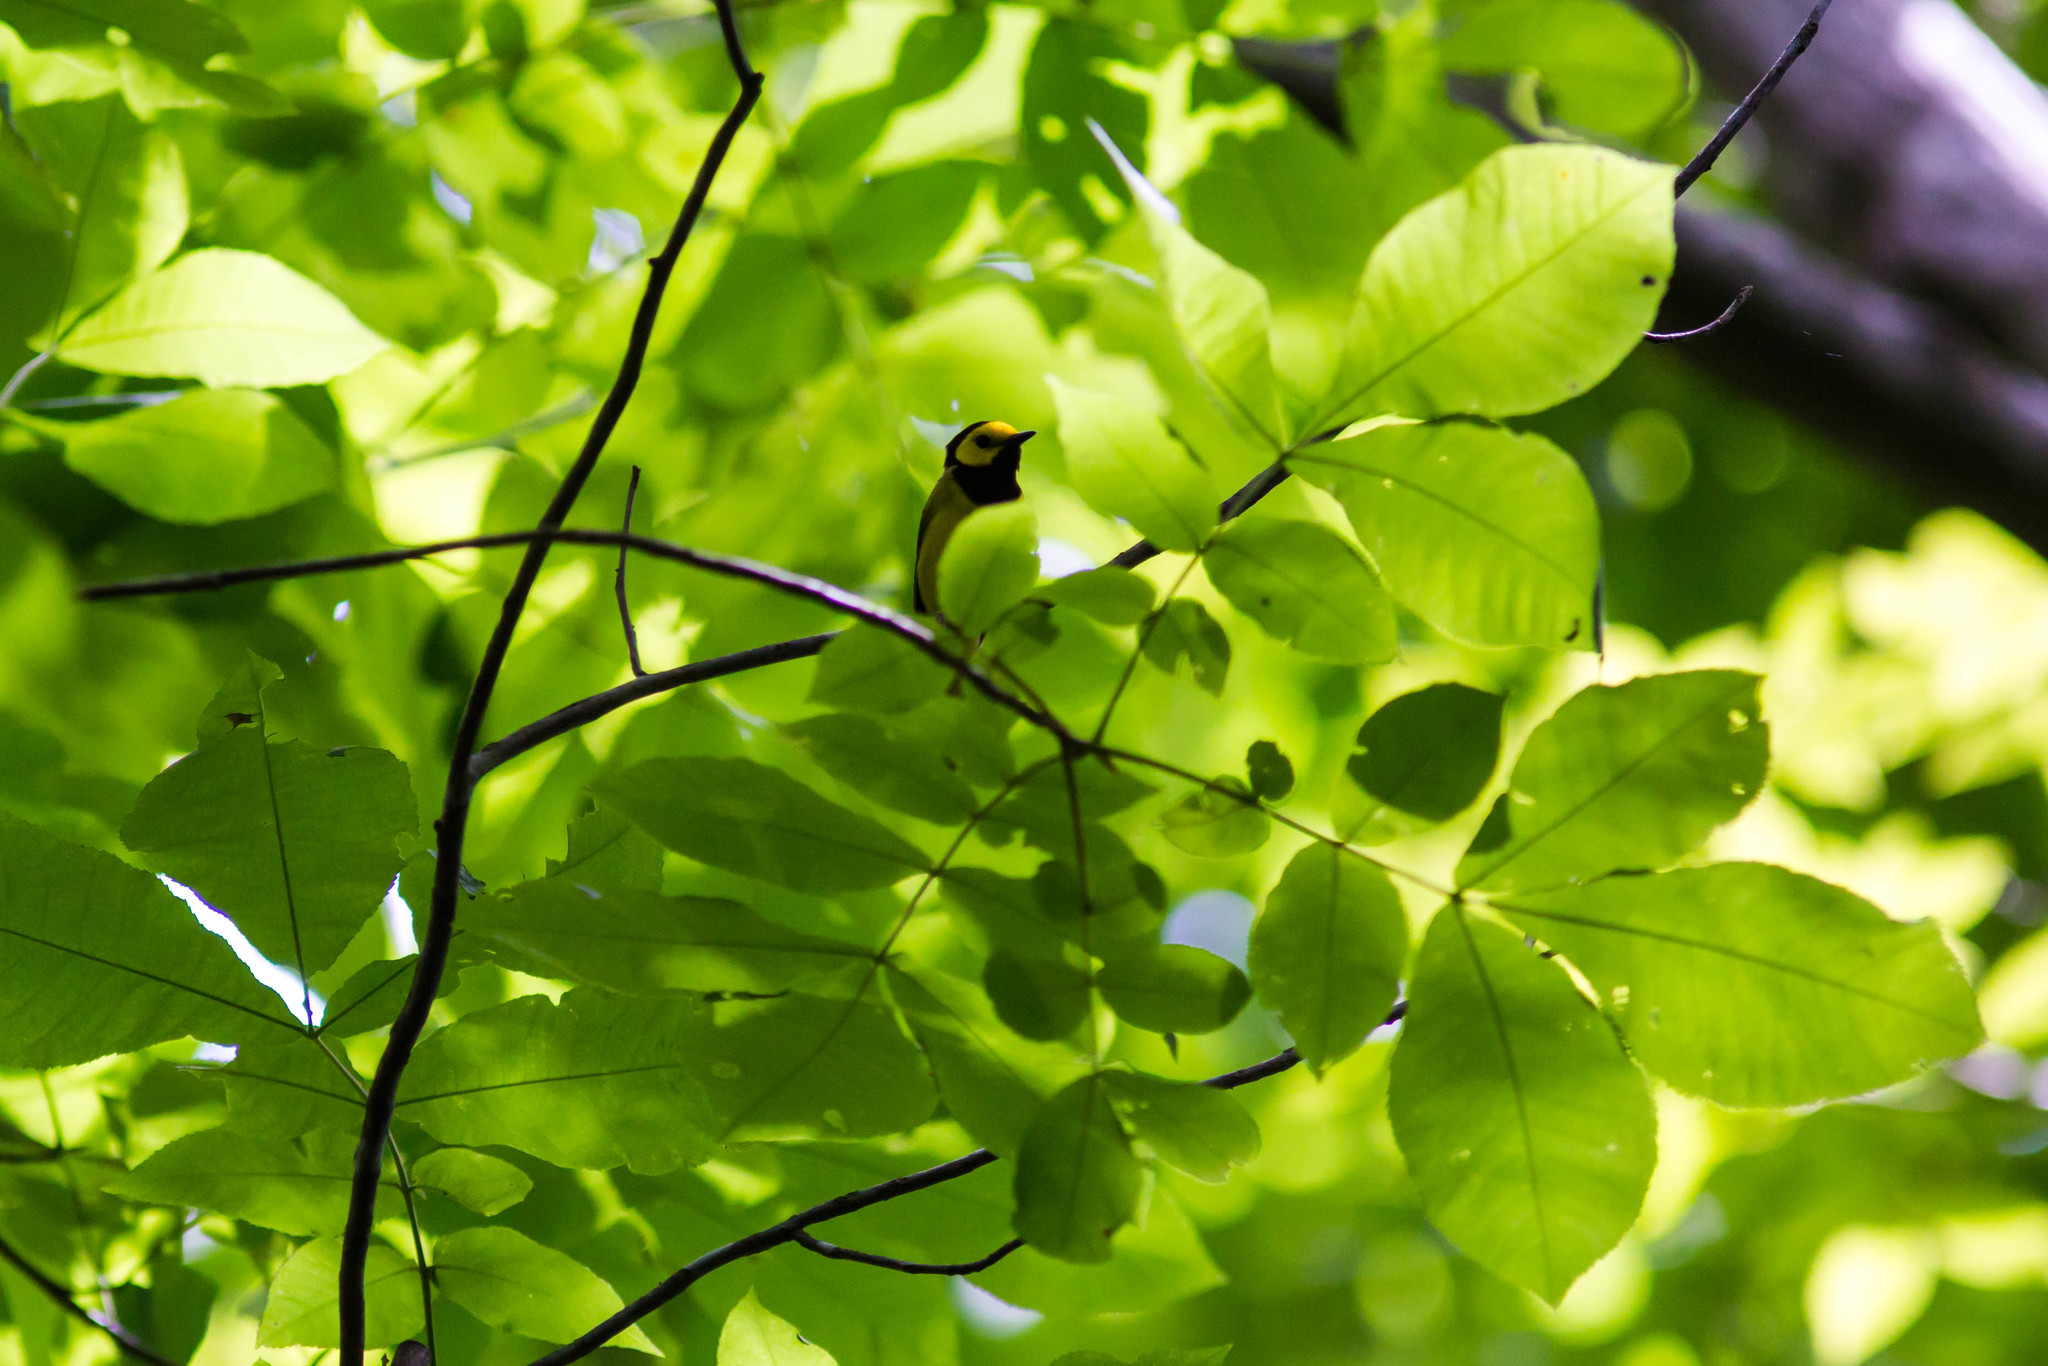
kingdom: Animalia
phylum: Chordata
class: Aves
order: Passeriformes
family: Parulidae
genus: Setophaga
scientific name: Setophaga citrina
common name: Hooded warbler
